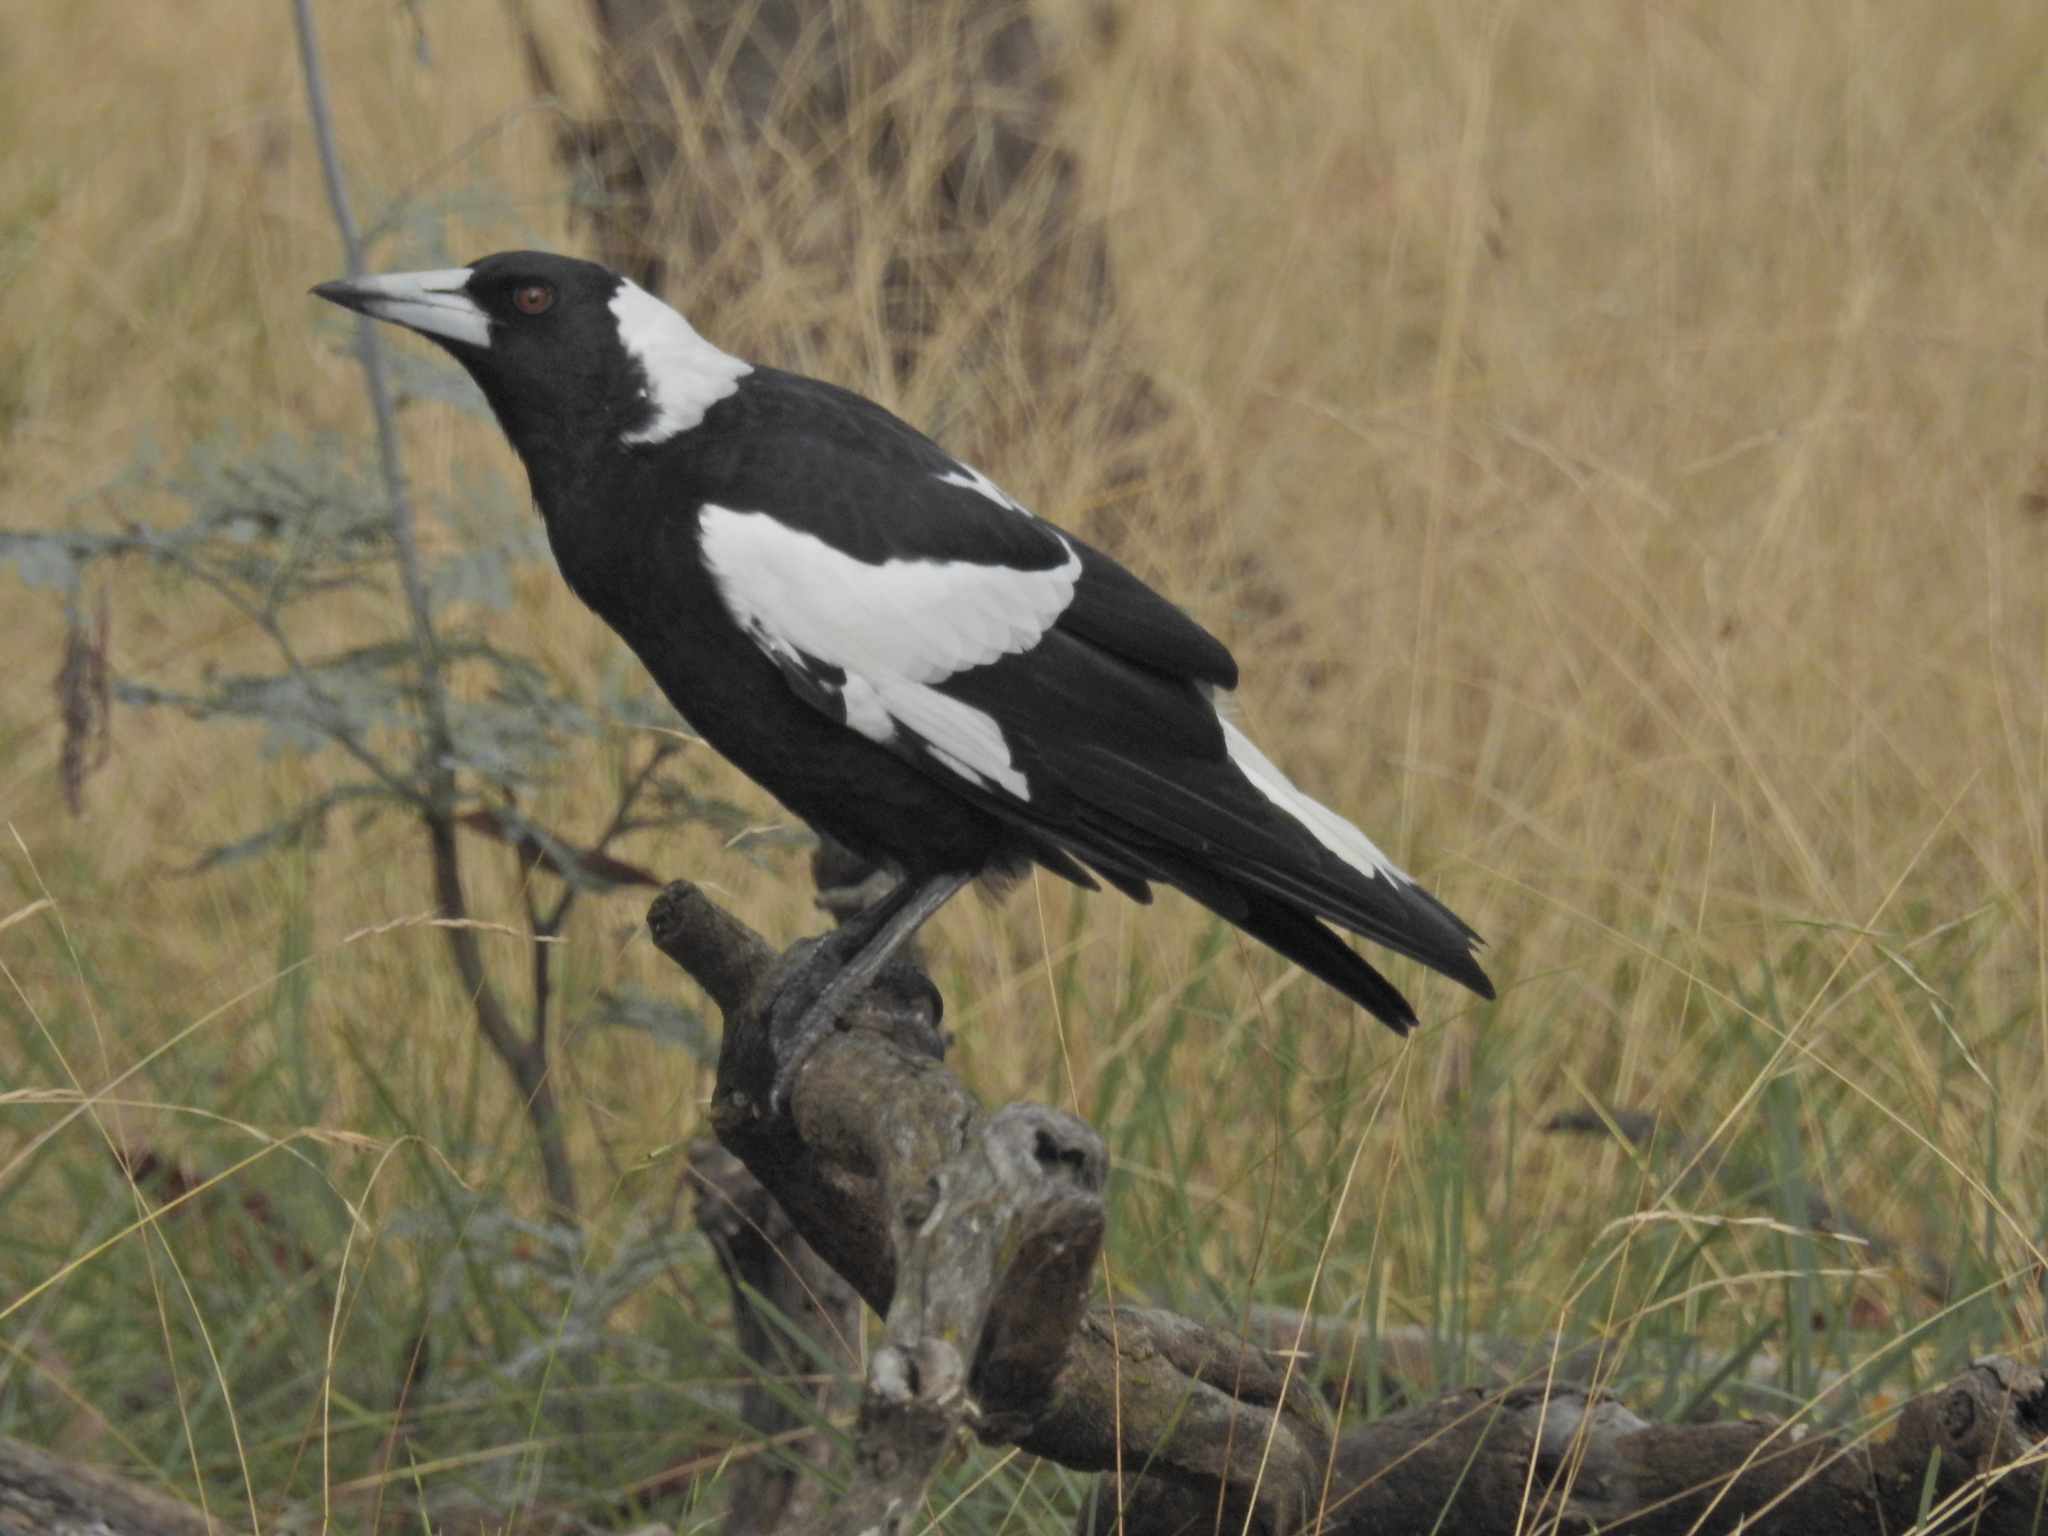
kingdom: Animalia
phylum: Chordata
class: Aves
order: Passeriformes
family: Cracticidae
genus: Gymnorhina
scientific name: Gymnorhina tibicen
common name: Australian magpie
